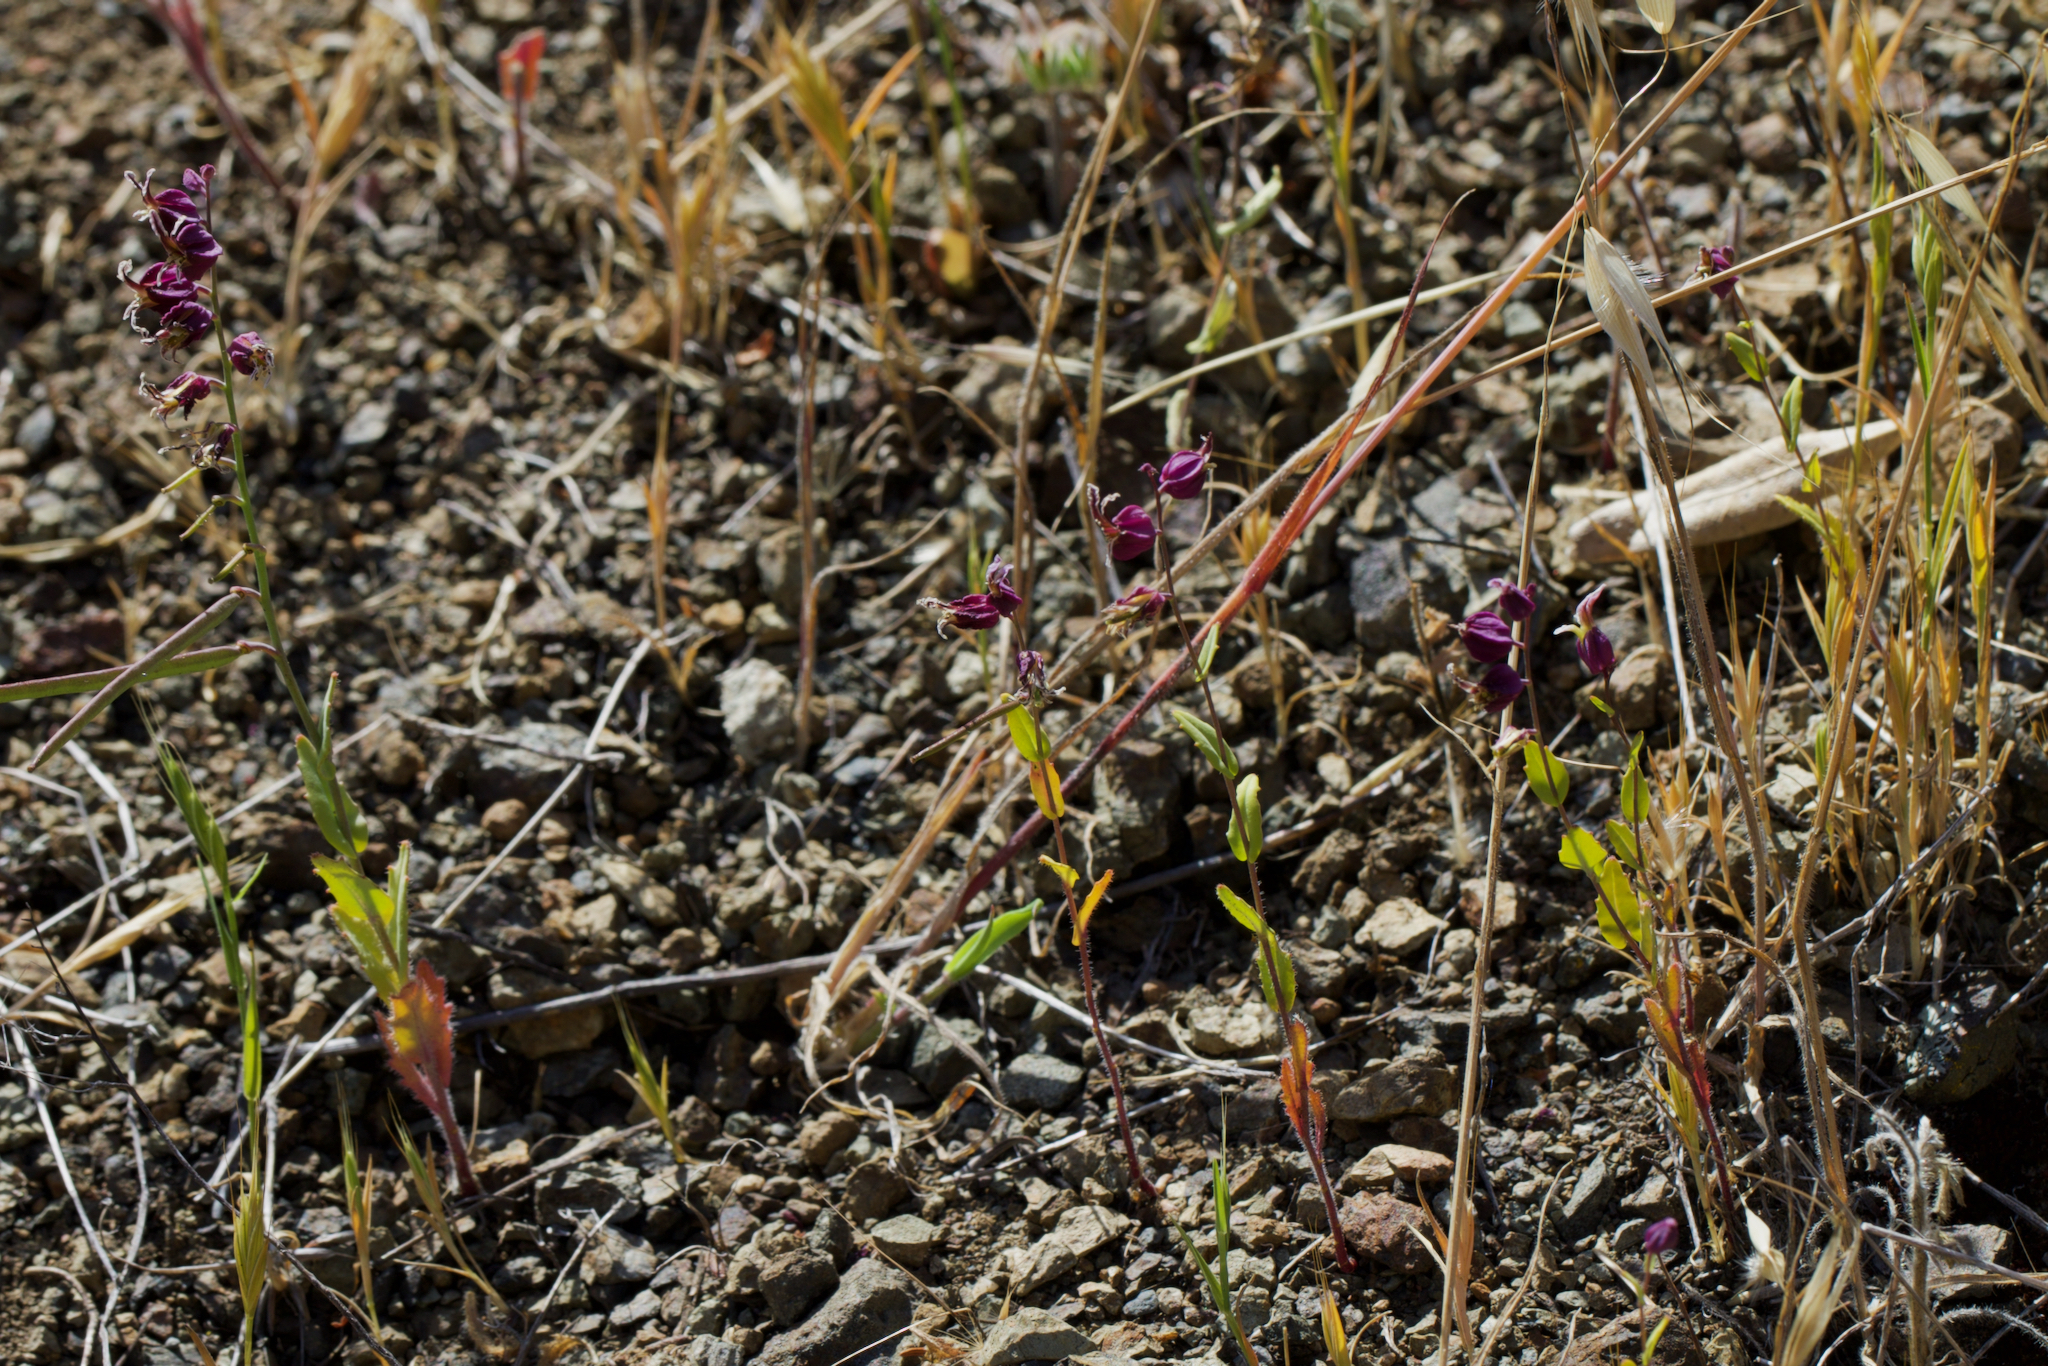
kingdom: Plantae
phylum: Tracheophyta
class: Magnoliopsida
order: Brassicales
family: Brassicaceae
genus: Streptanthus
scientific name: Streptanthus glandulosus
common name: Jewel-flower
